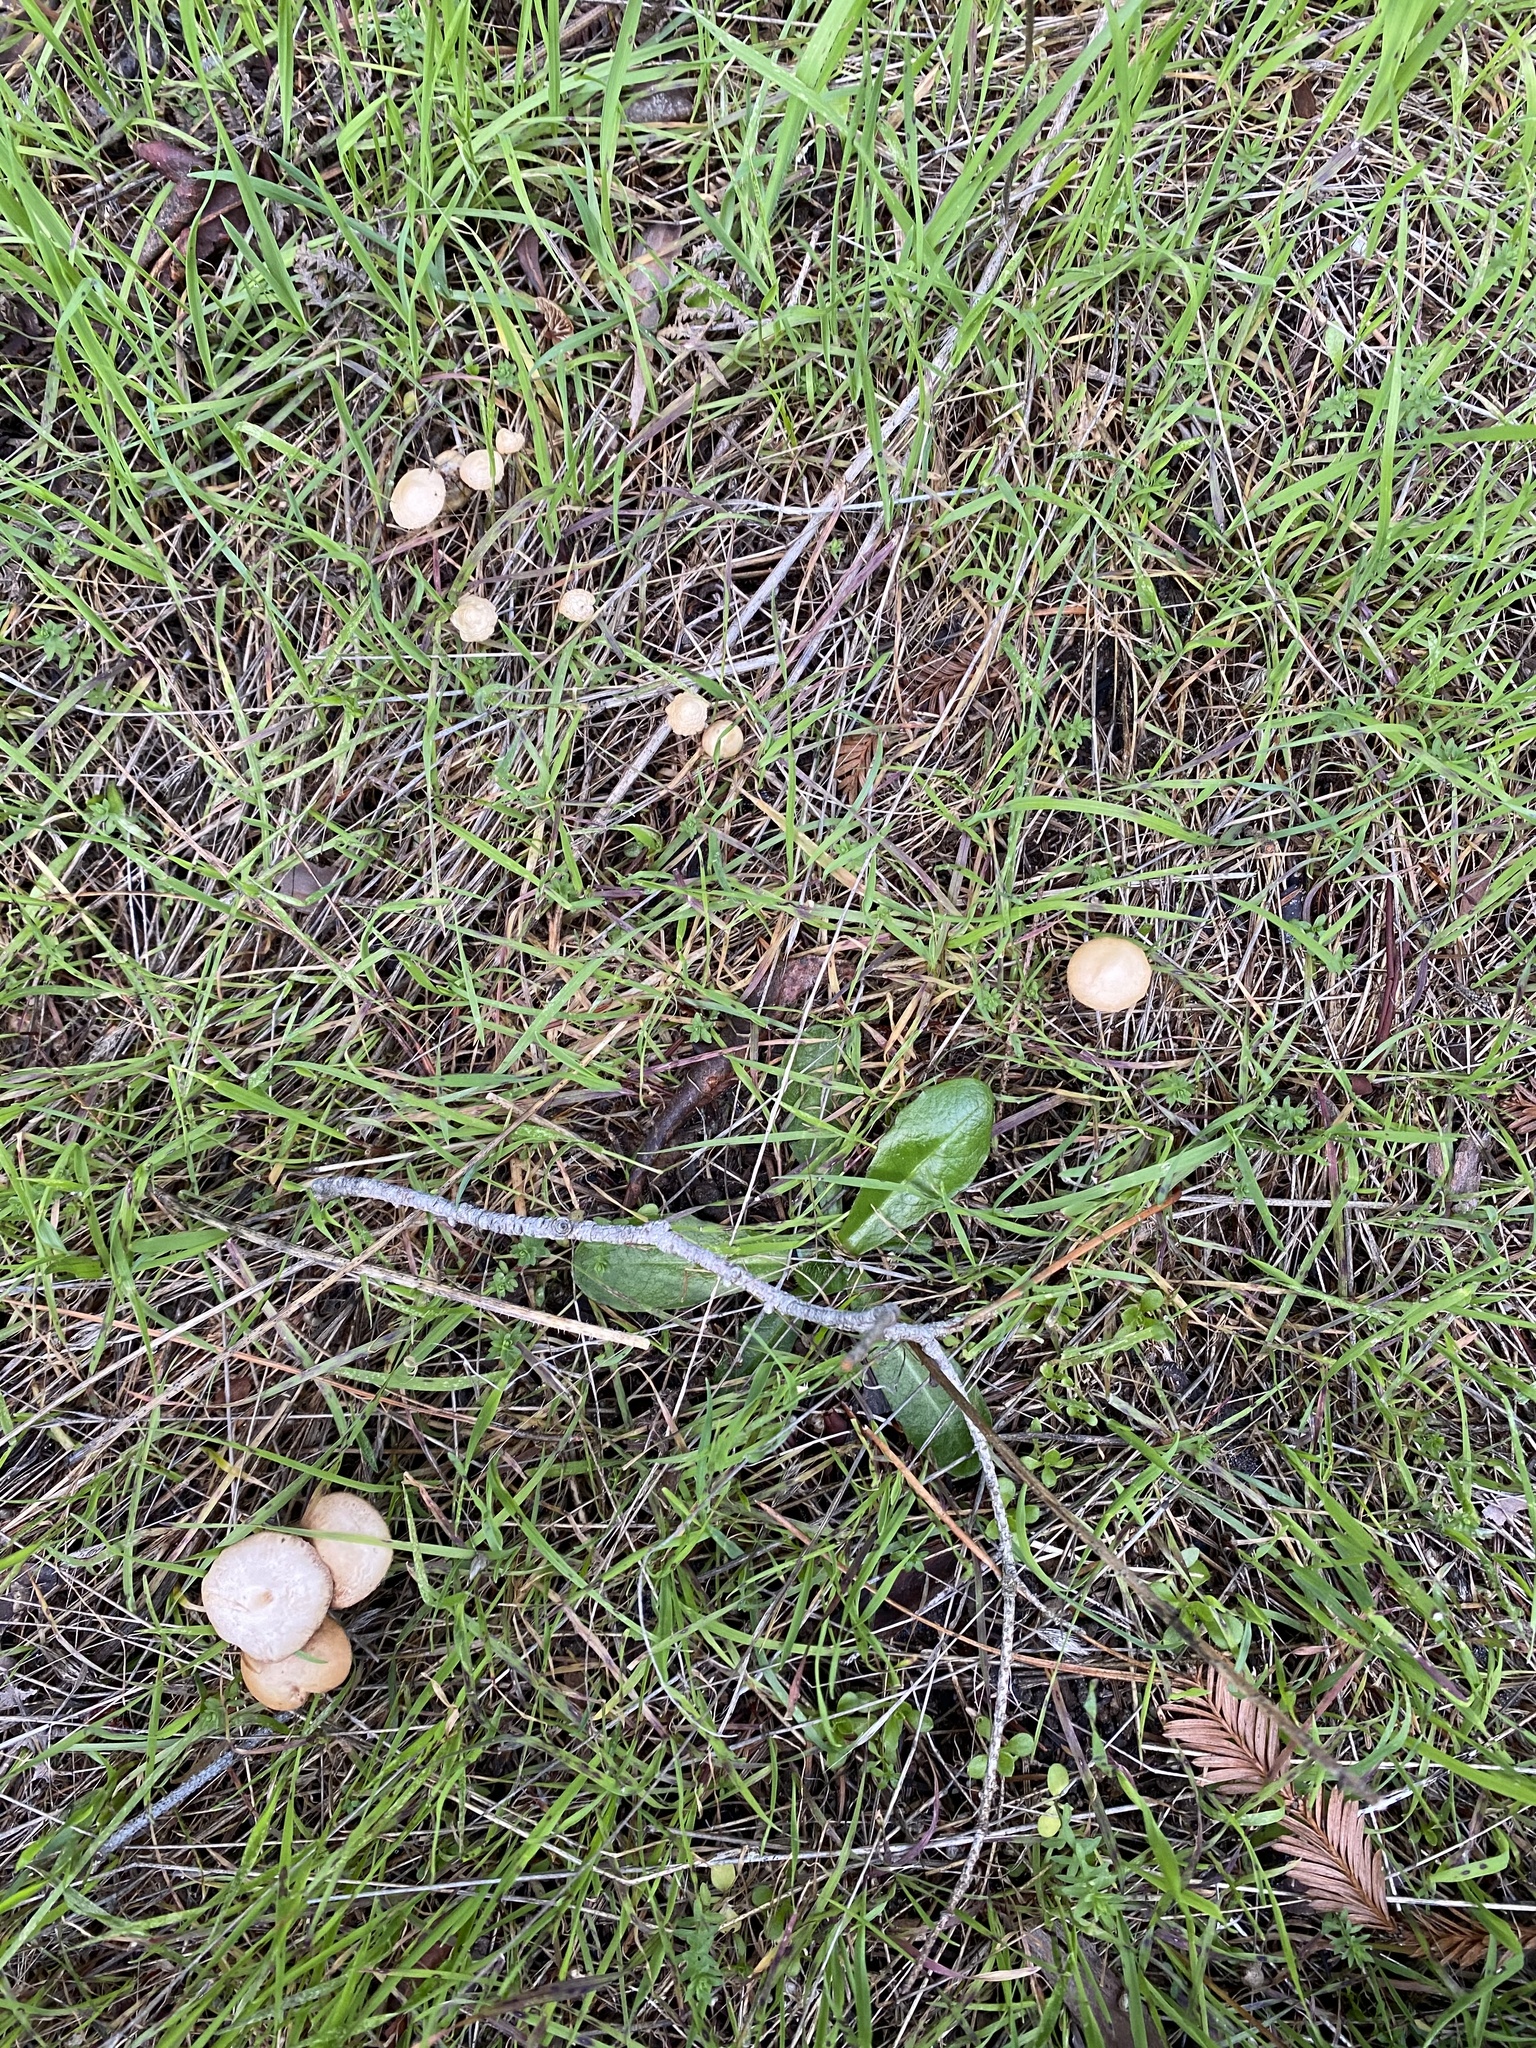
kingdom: Fungi
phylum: Basidiomycota
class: Agaricomycetes
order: Agaricales
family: Strophariaceae
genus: Agrocybe
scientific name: Agrocybe pediades
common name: Common fieldcap
